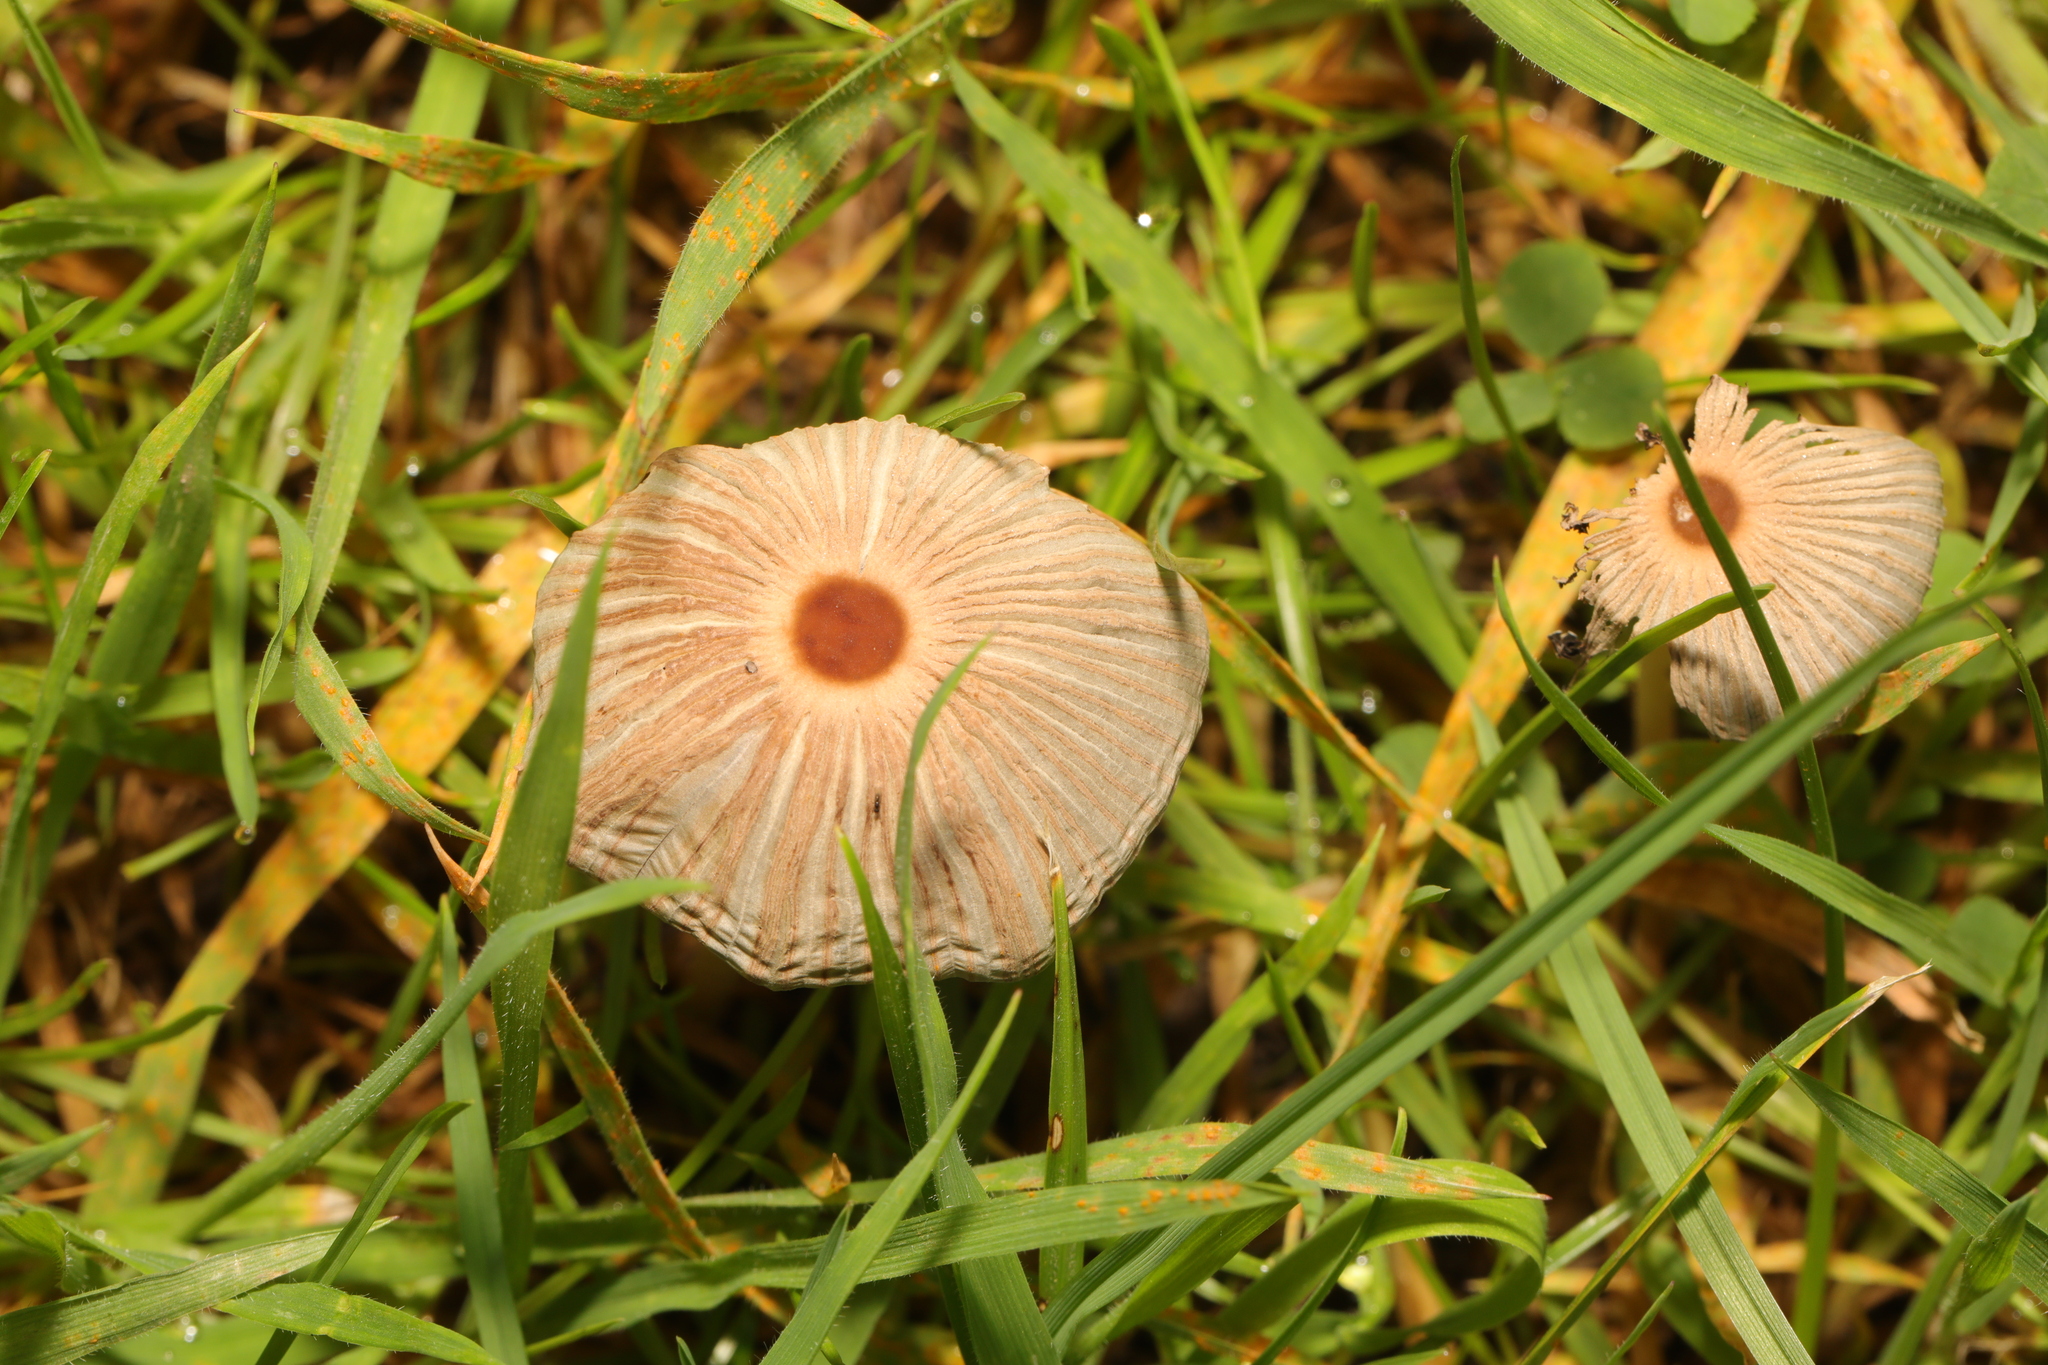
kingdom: Fungi
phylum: Basidiomycota
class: Agaricomycetes
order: Agaricales
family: Psathyrellaceae
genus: Parasola
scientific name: Parasola plicatilis
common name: Pleated inkcap
